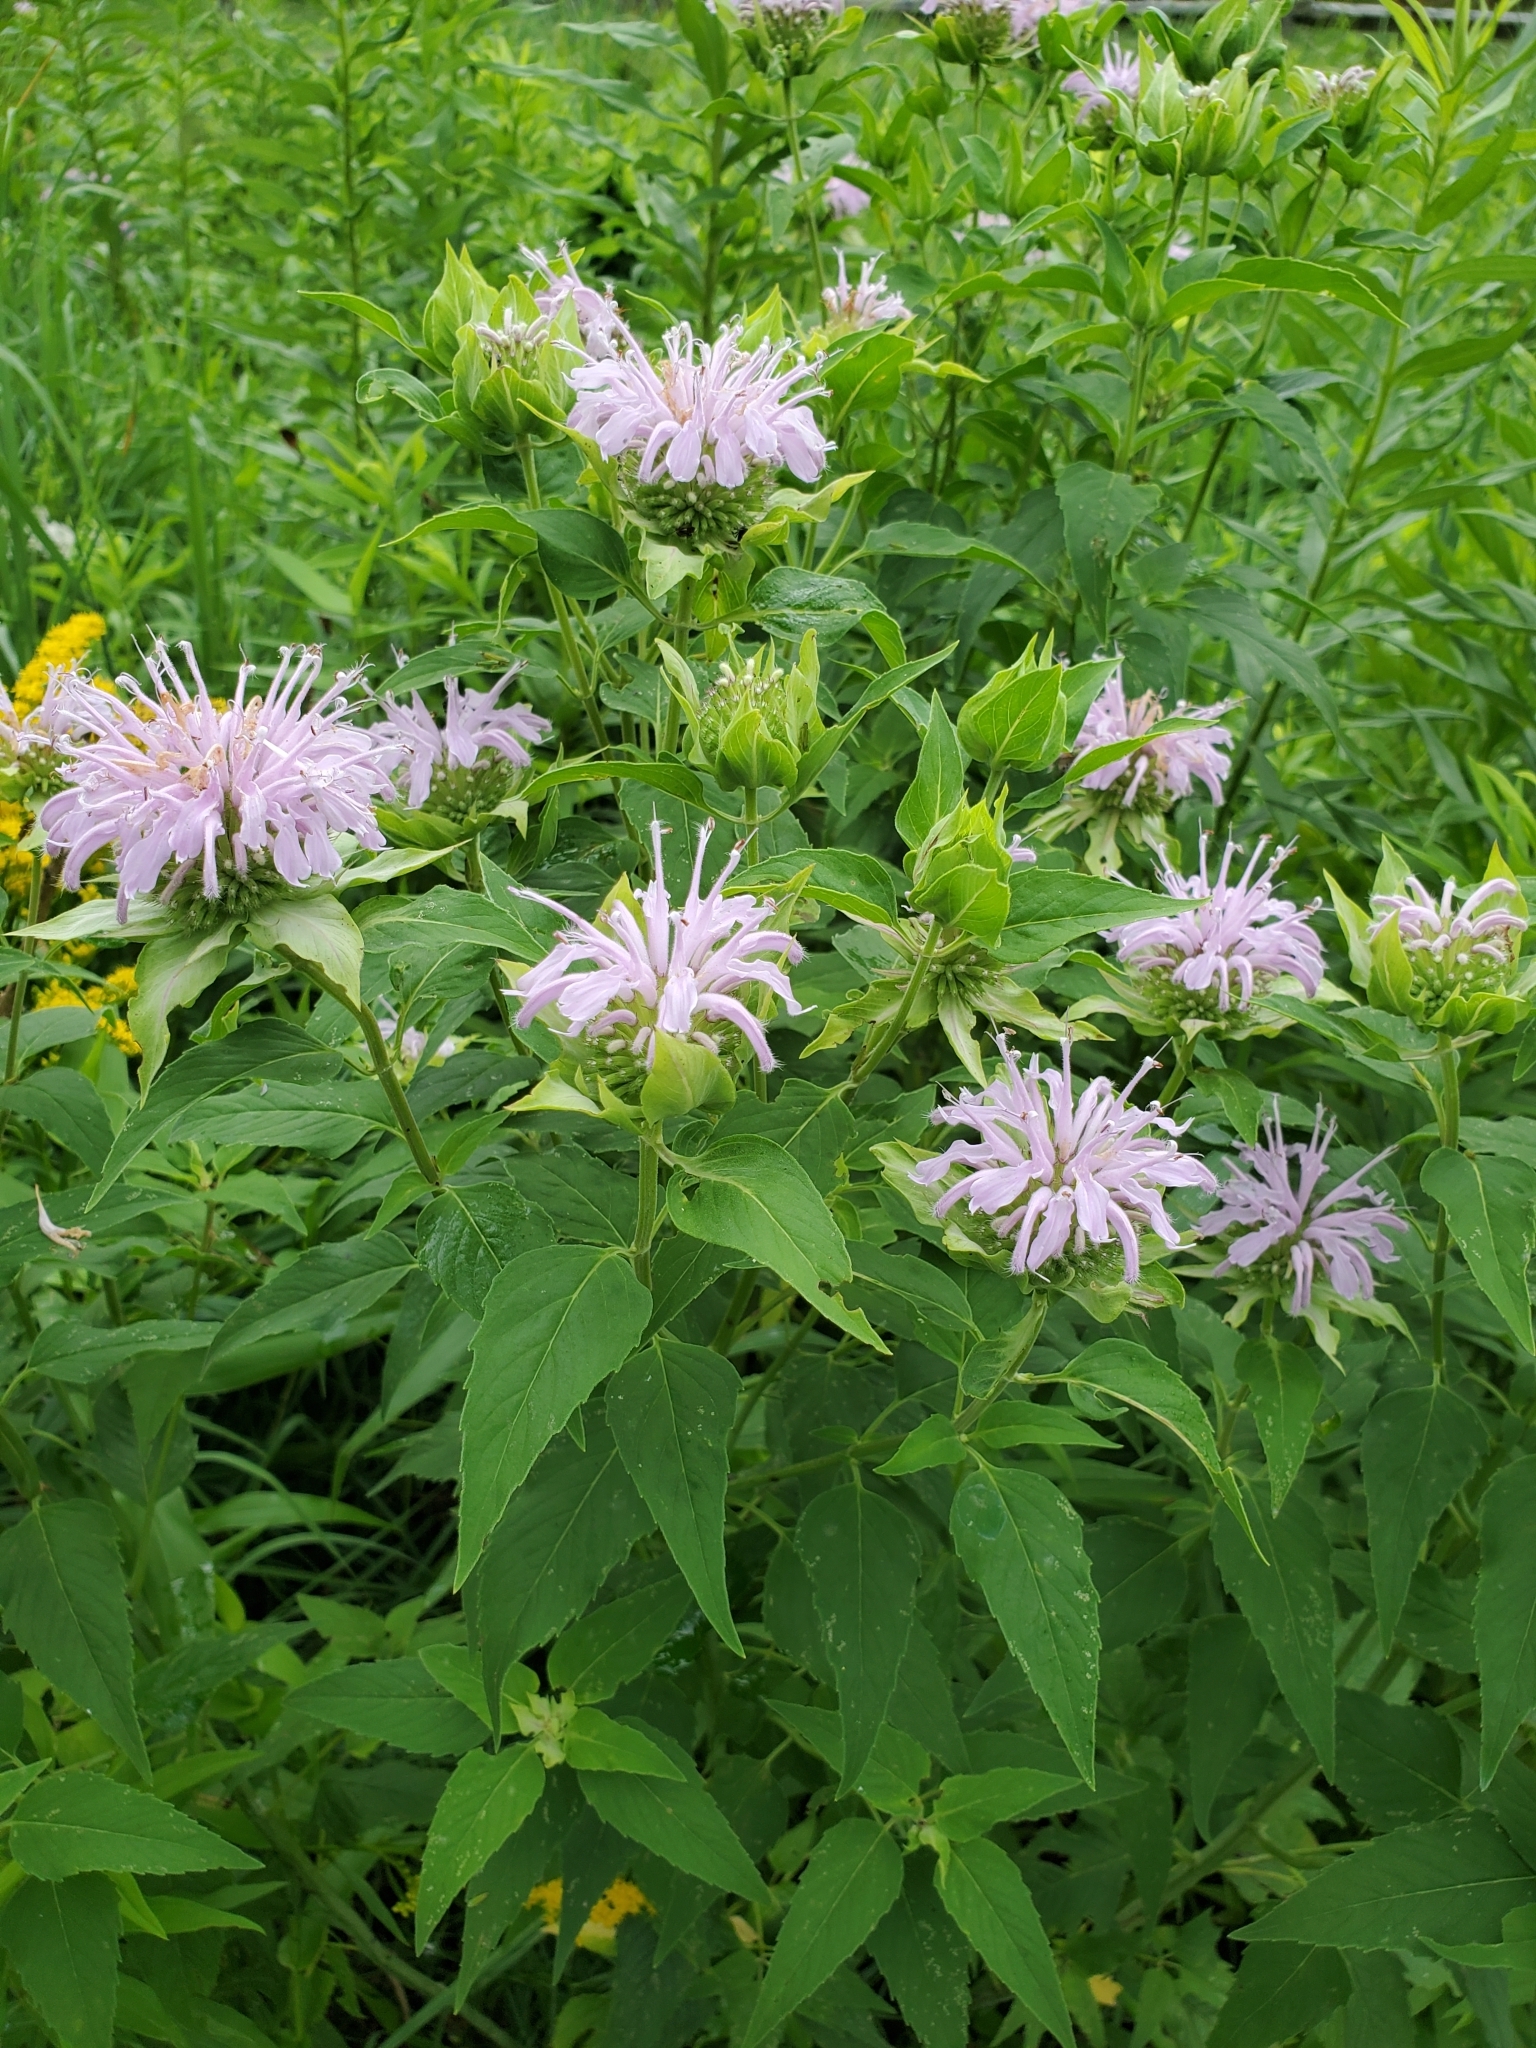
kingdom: Plantae
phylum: Tracheophyta
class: Magnoliopsida
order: Lamiales
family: Lamiaceae
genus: Monarda
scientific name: Monarda fistulosa
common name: Purple beebalm
